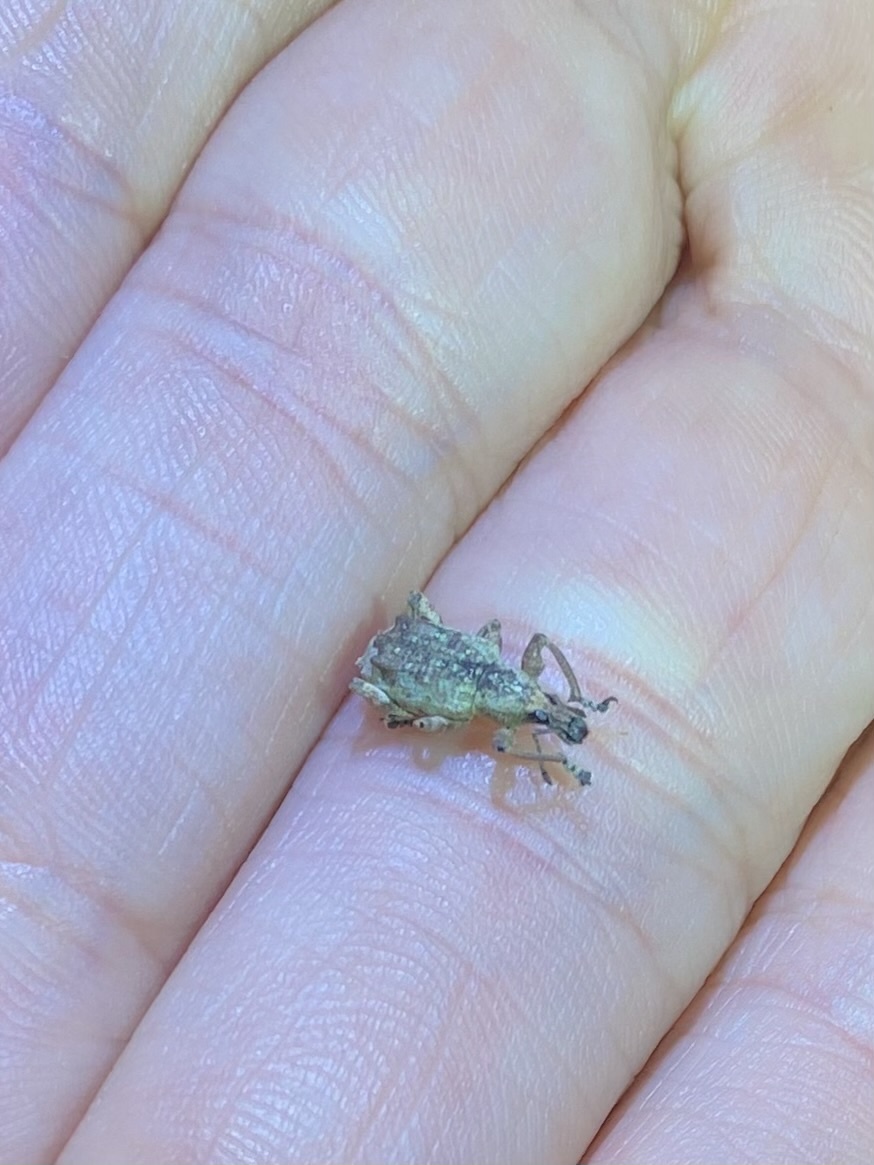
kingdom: Animalia
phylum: Arthropoda
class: Insecta
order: Coleoptera
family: Curculionidae
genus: Claeoteges
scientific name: Claeoteges virosa
